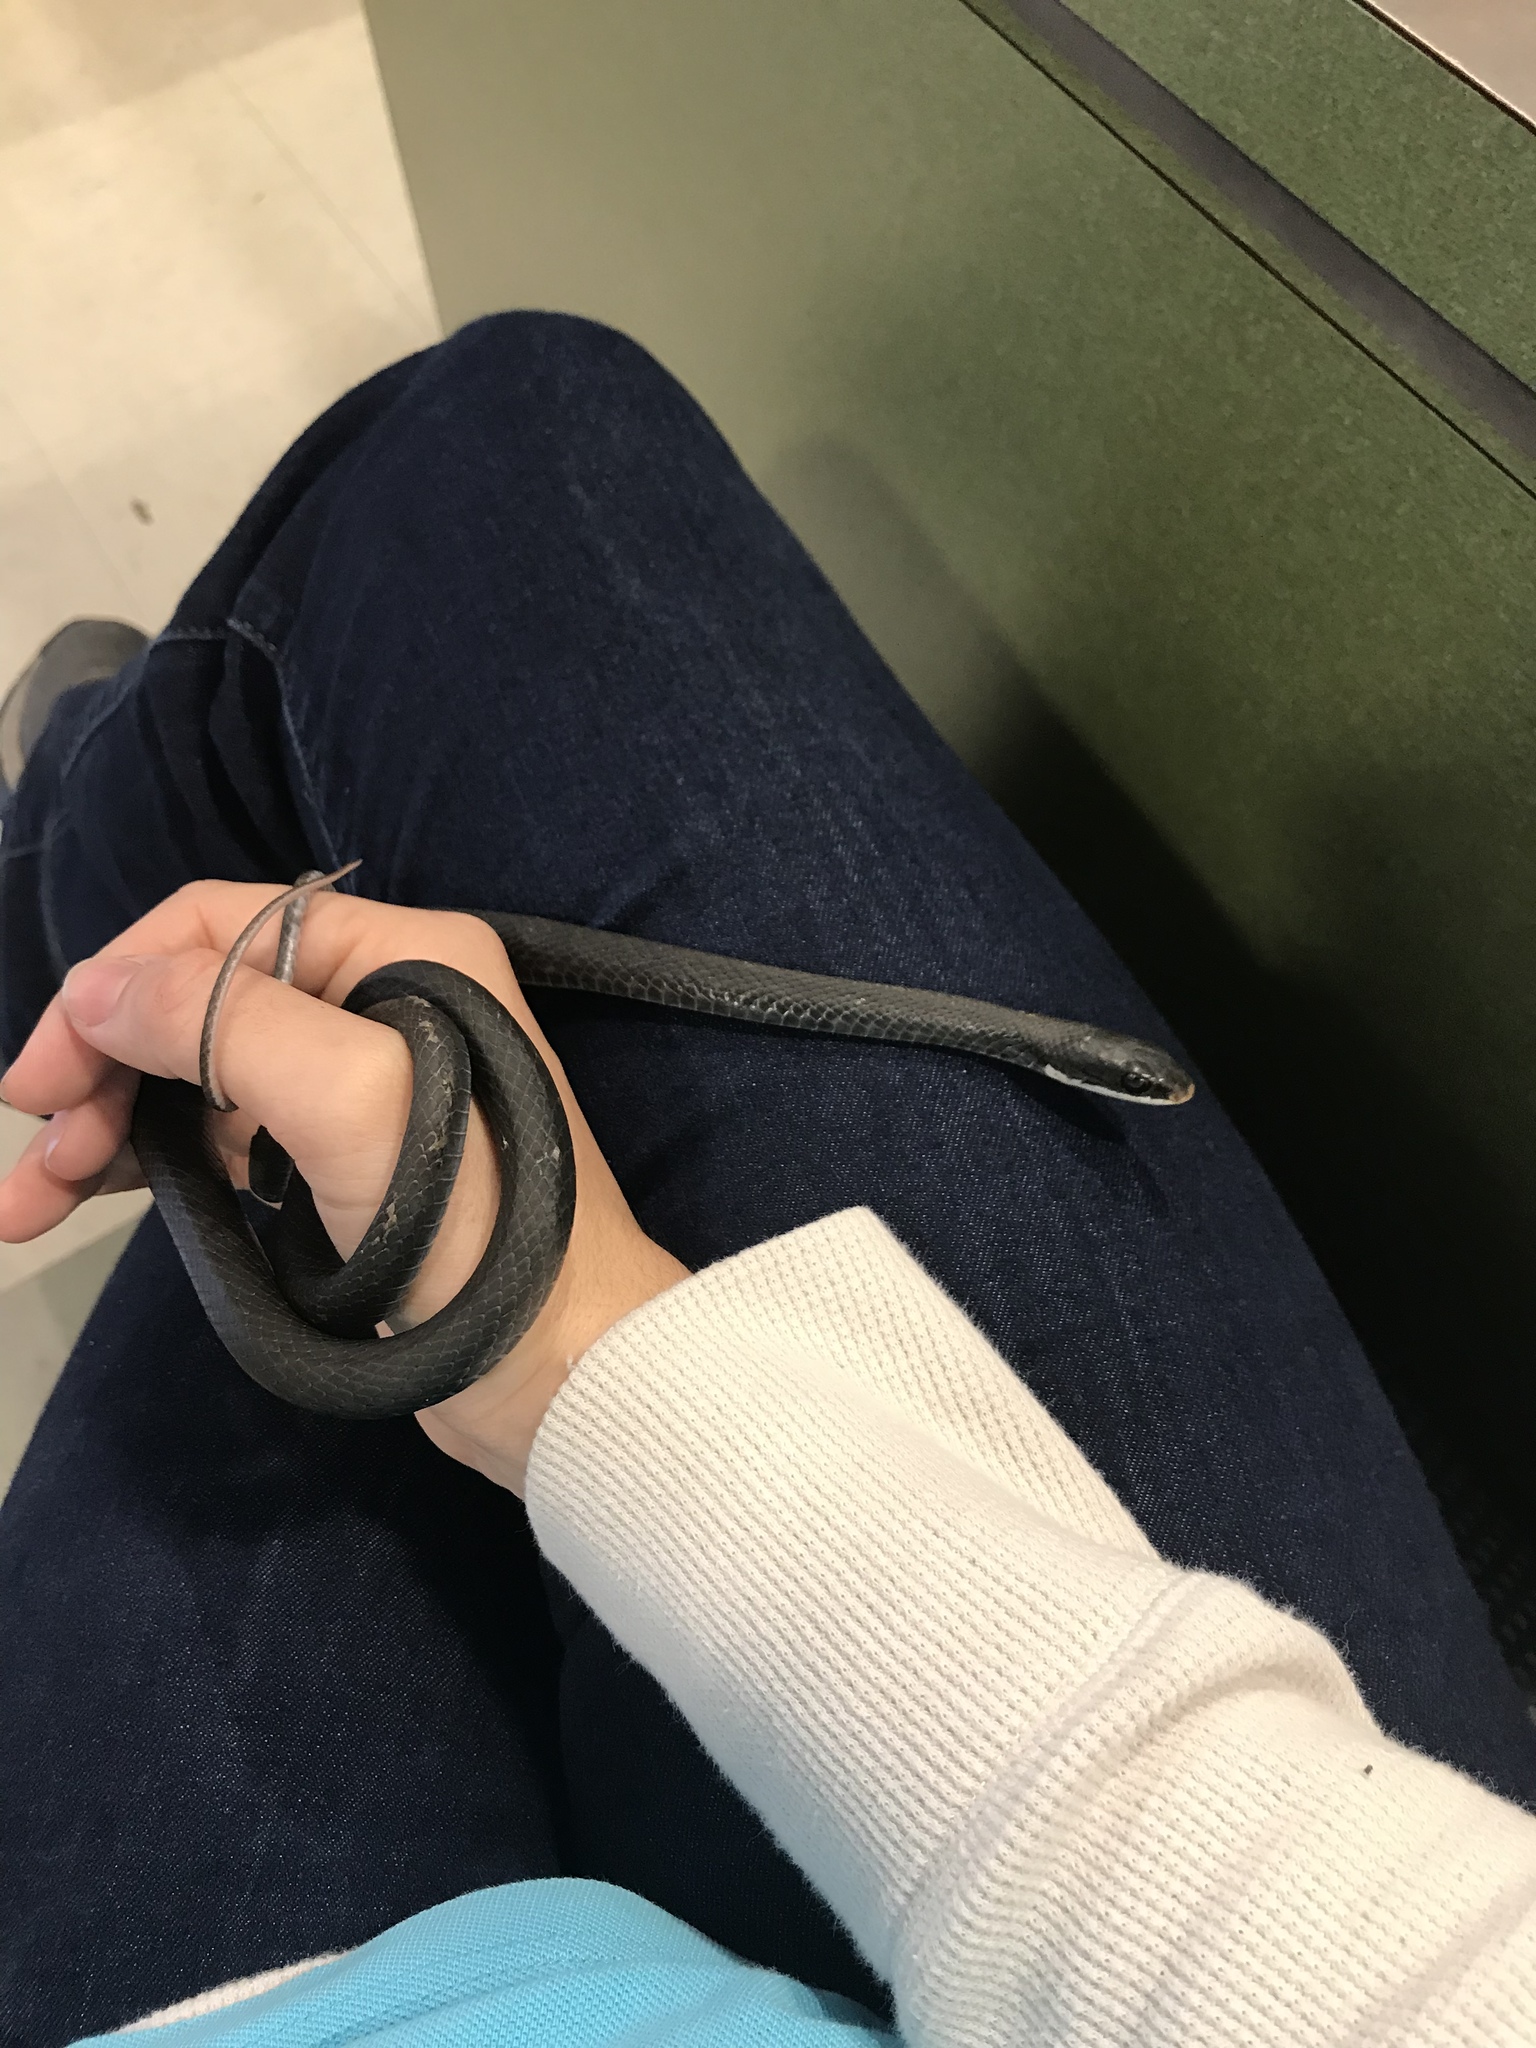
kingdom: Animalia
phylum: Chordata
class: Squamata
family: Colubridae
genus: Coluber
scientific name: Coluber constrictor
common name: Eastern racer
